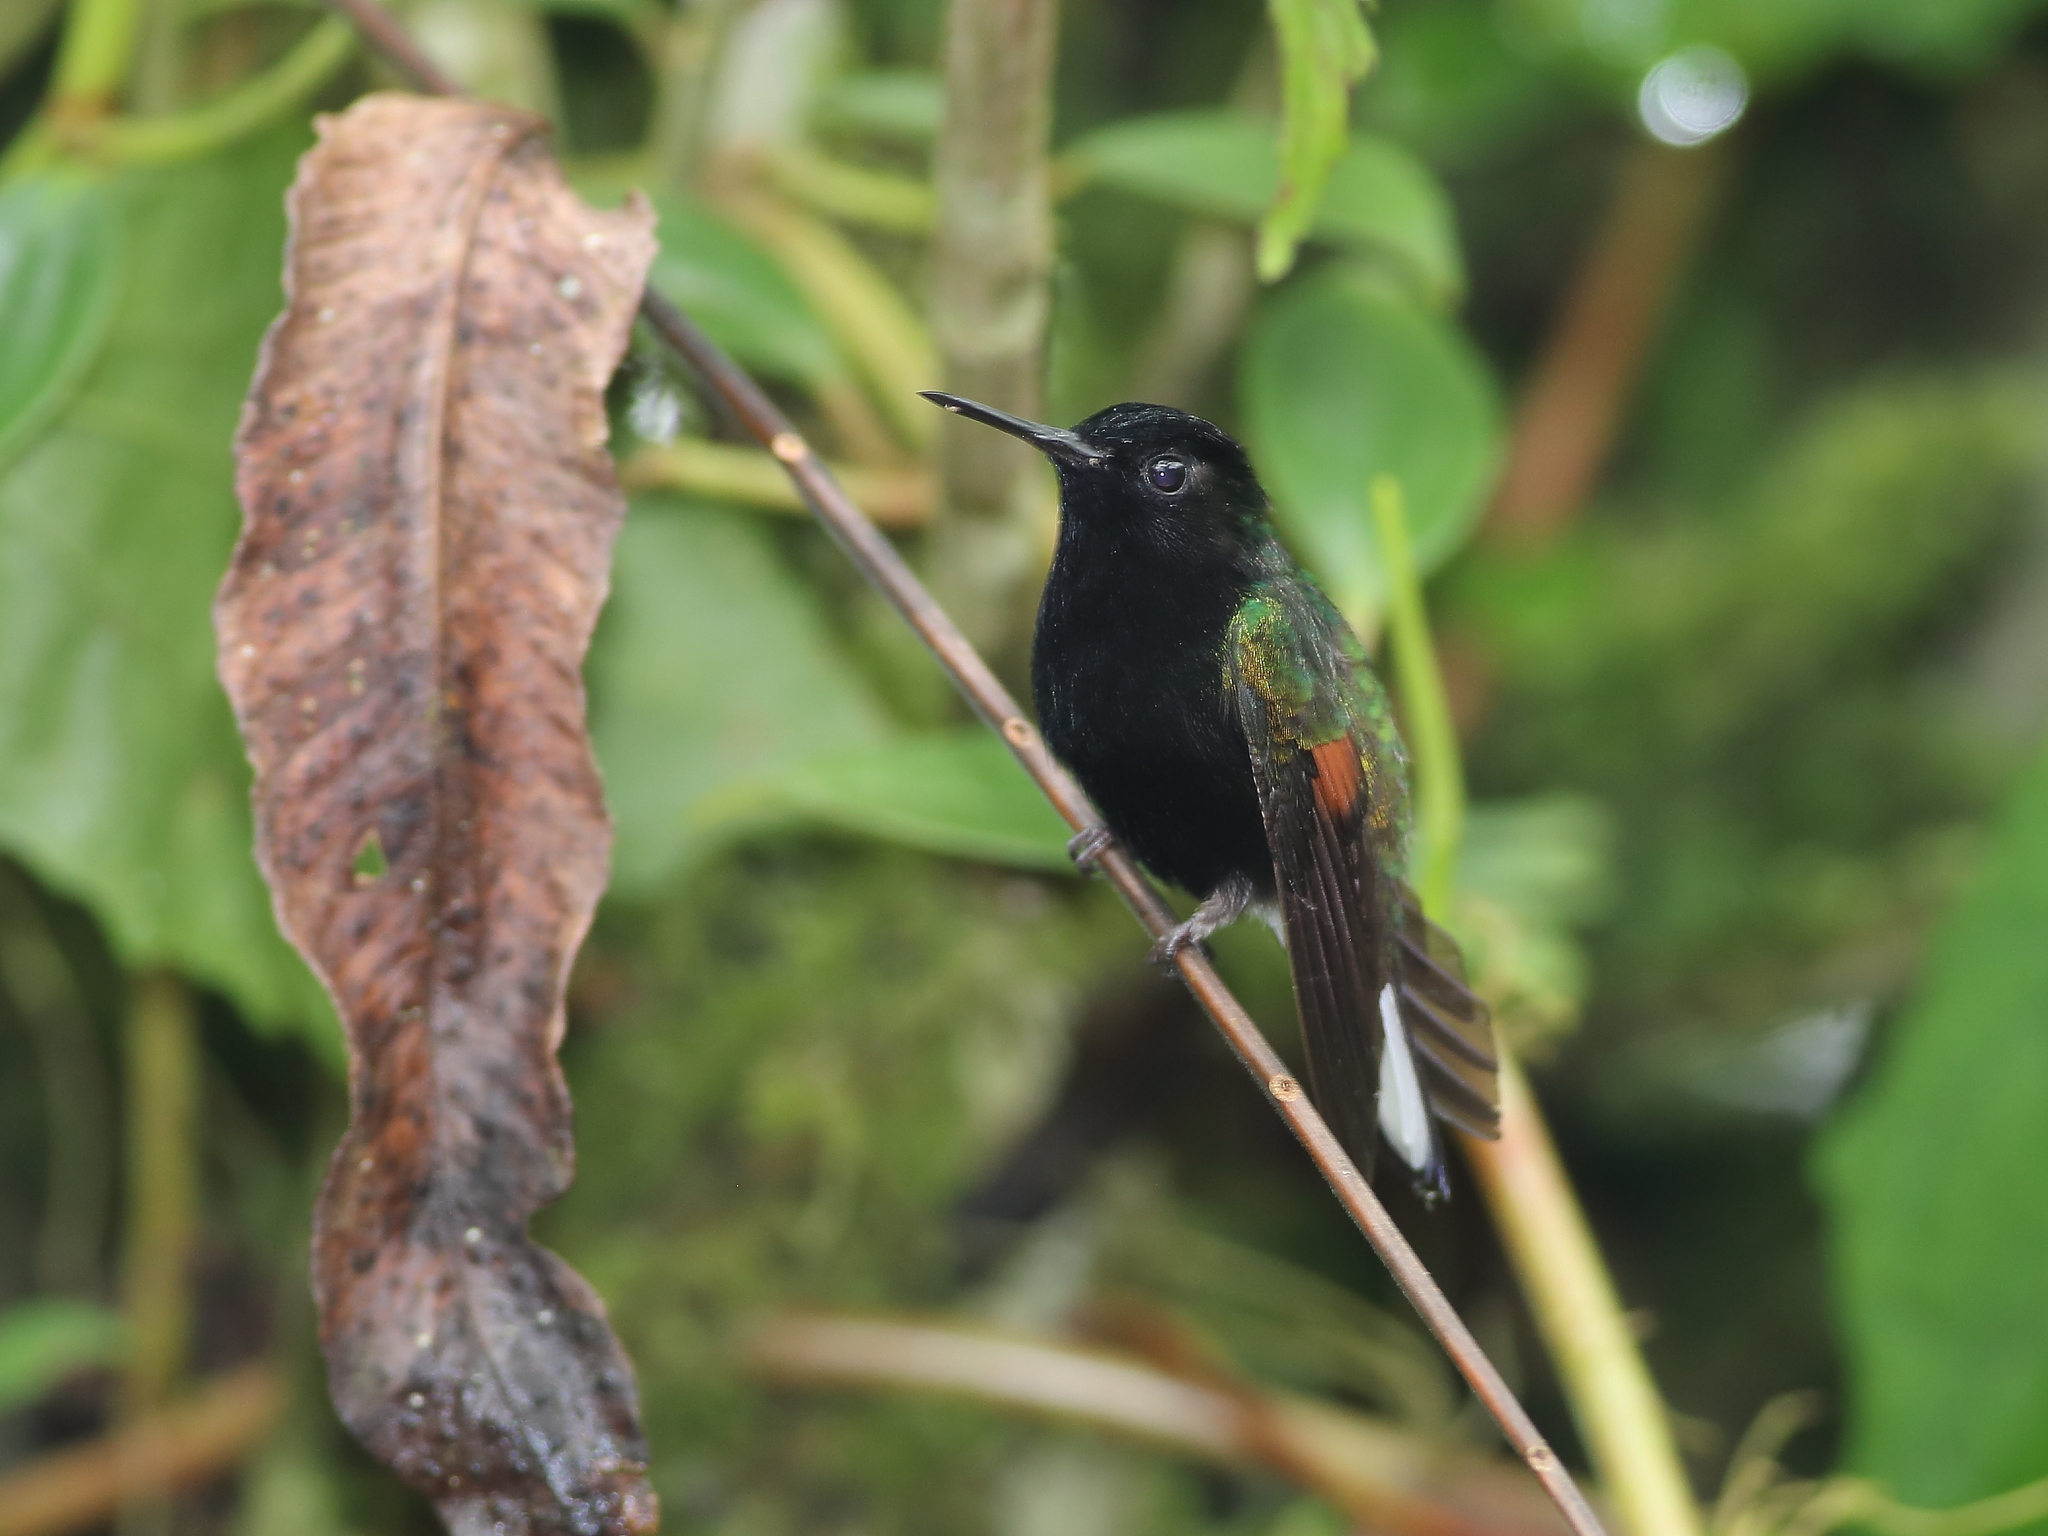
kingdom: Animalia
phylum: Chordata
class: Aves
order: Apodiformes
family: Trochilidae
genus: Eupherusa
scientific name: Eupherusa nigriventris
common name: Black-bellied hummingbird
